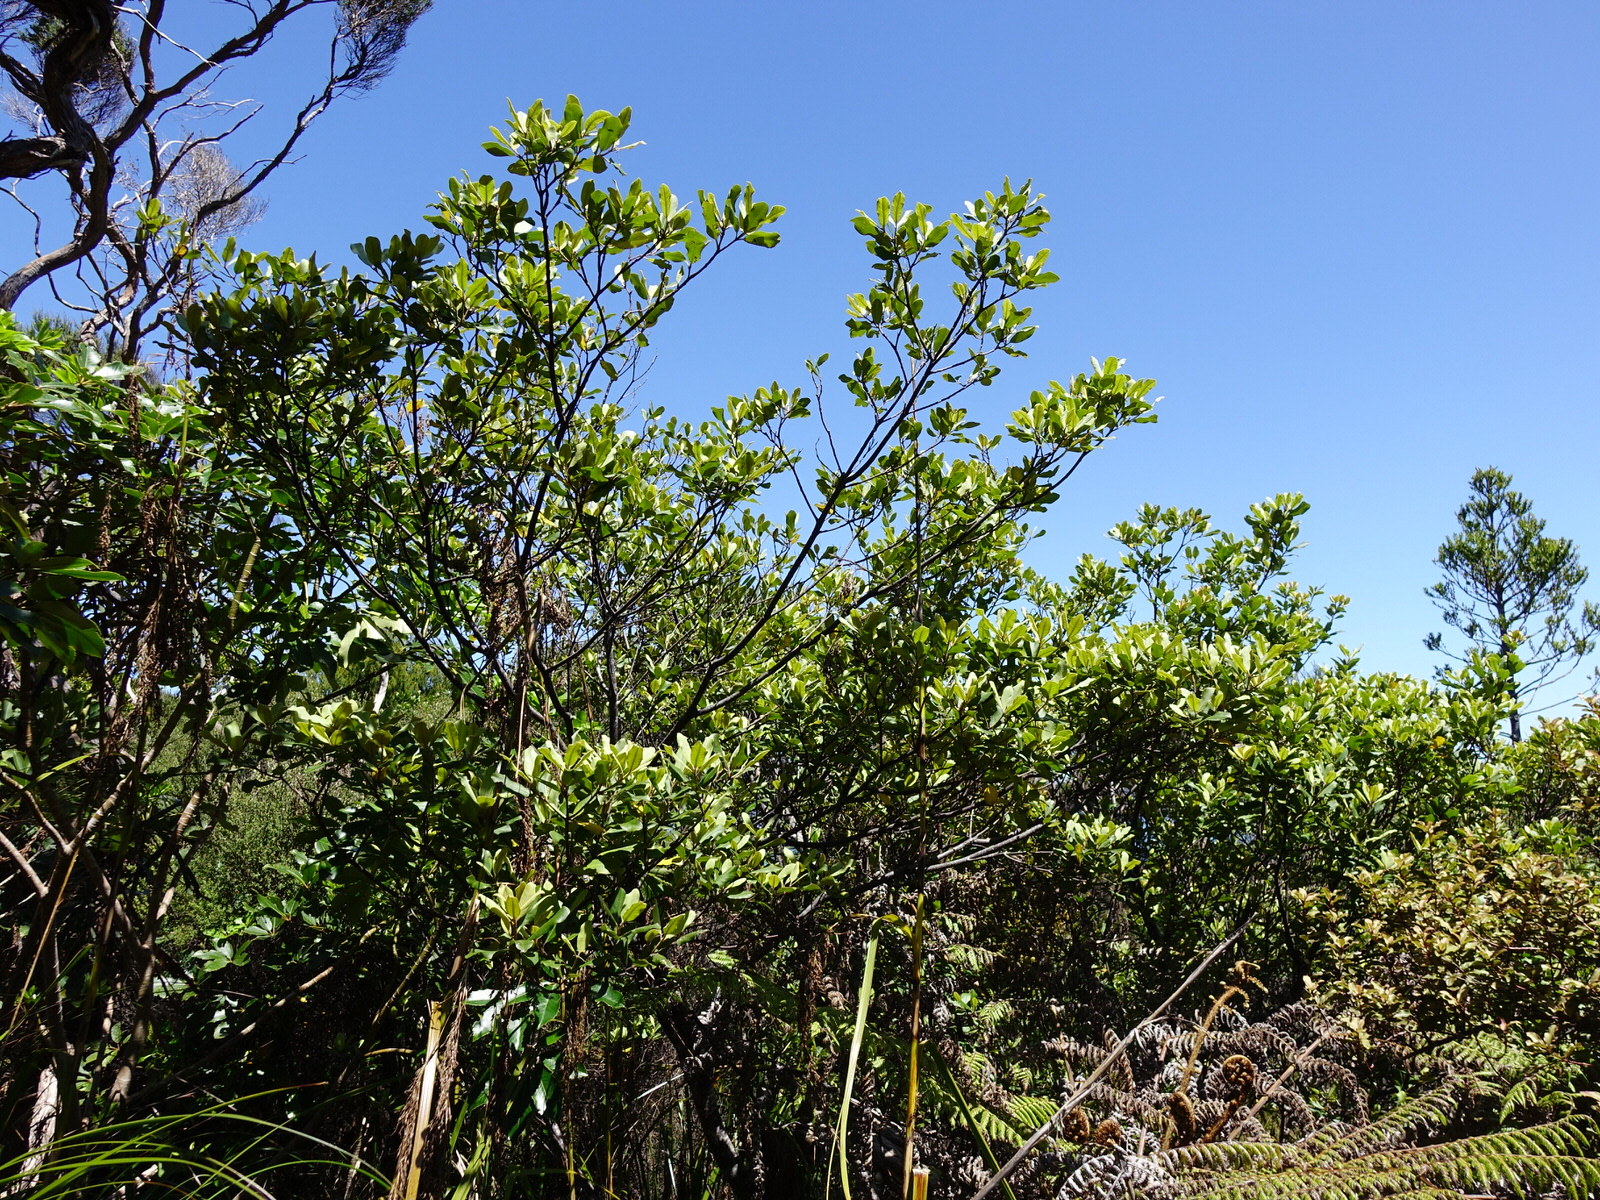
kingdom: Plantae
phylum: Tracheophyta
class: Magnoliopsida
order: Apiales
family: Pittosporaceae
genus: Pittosporum
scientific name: Pittosporum ellipticum
